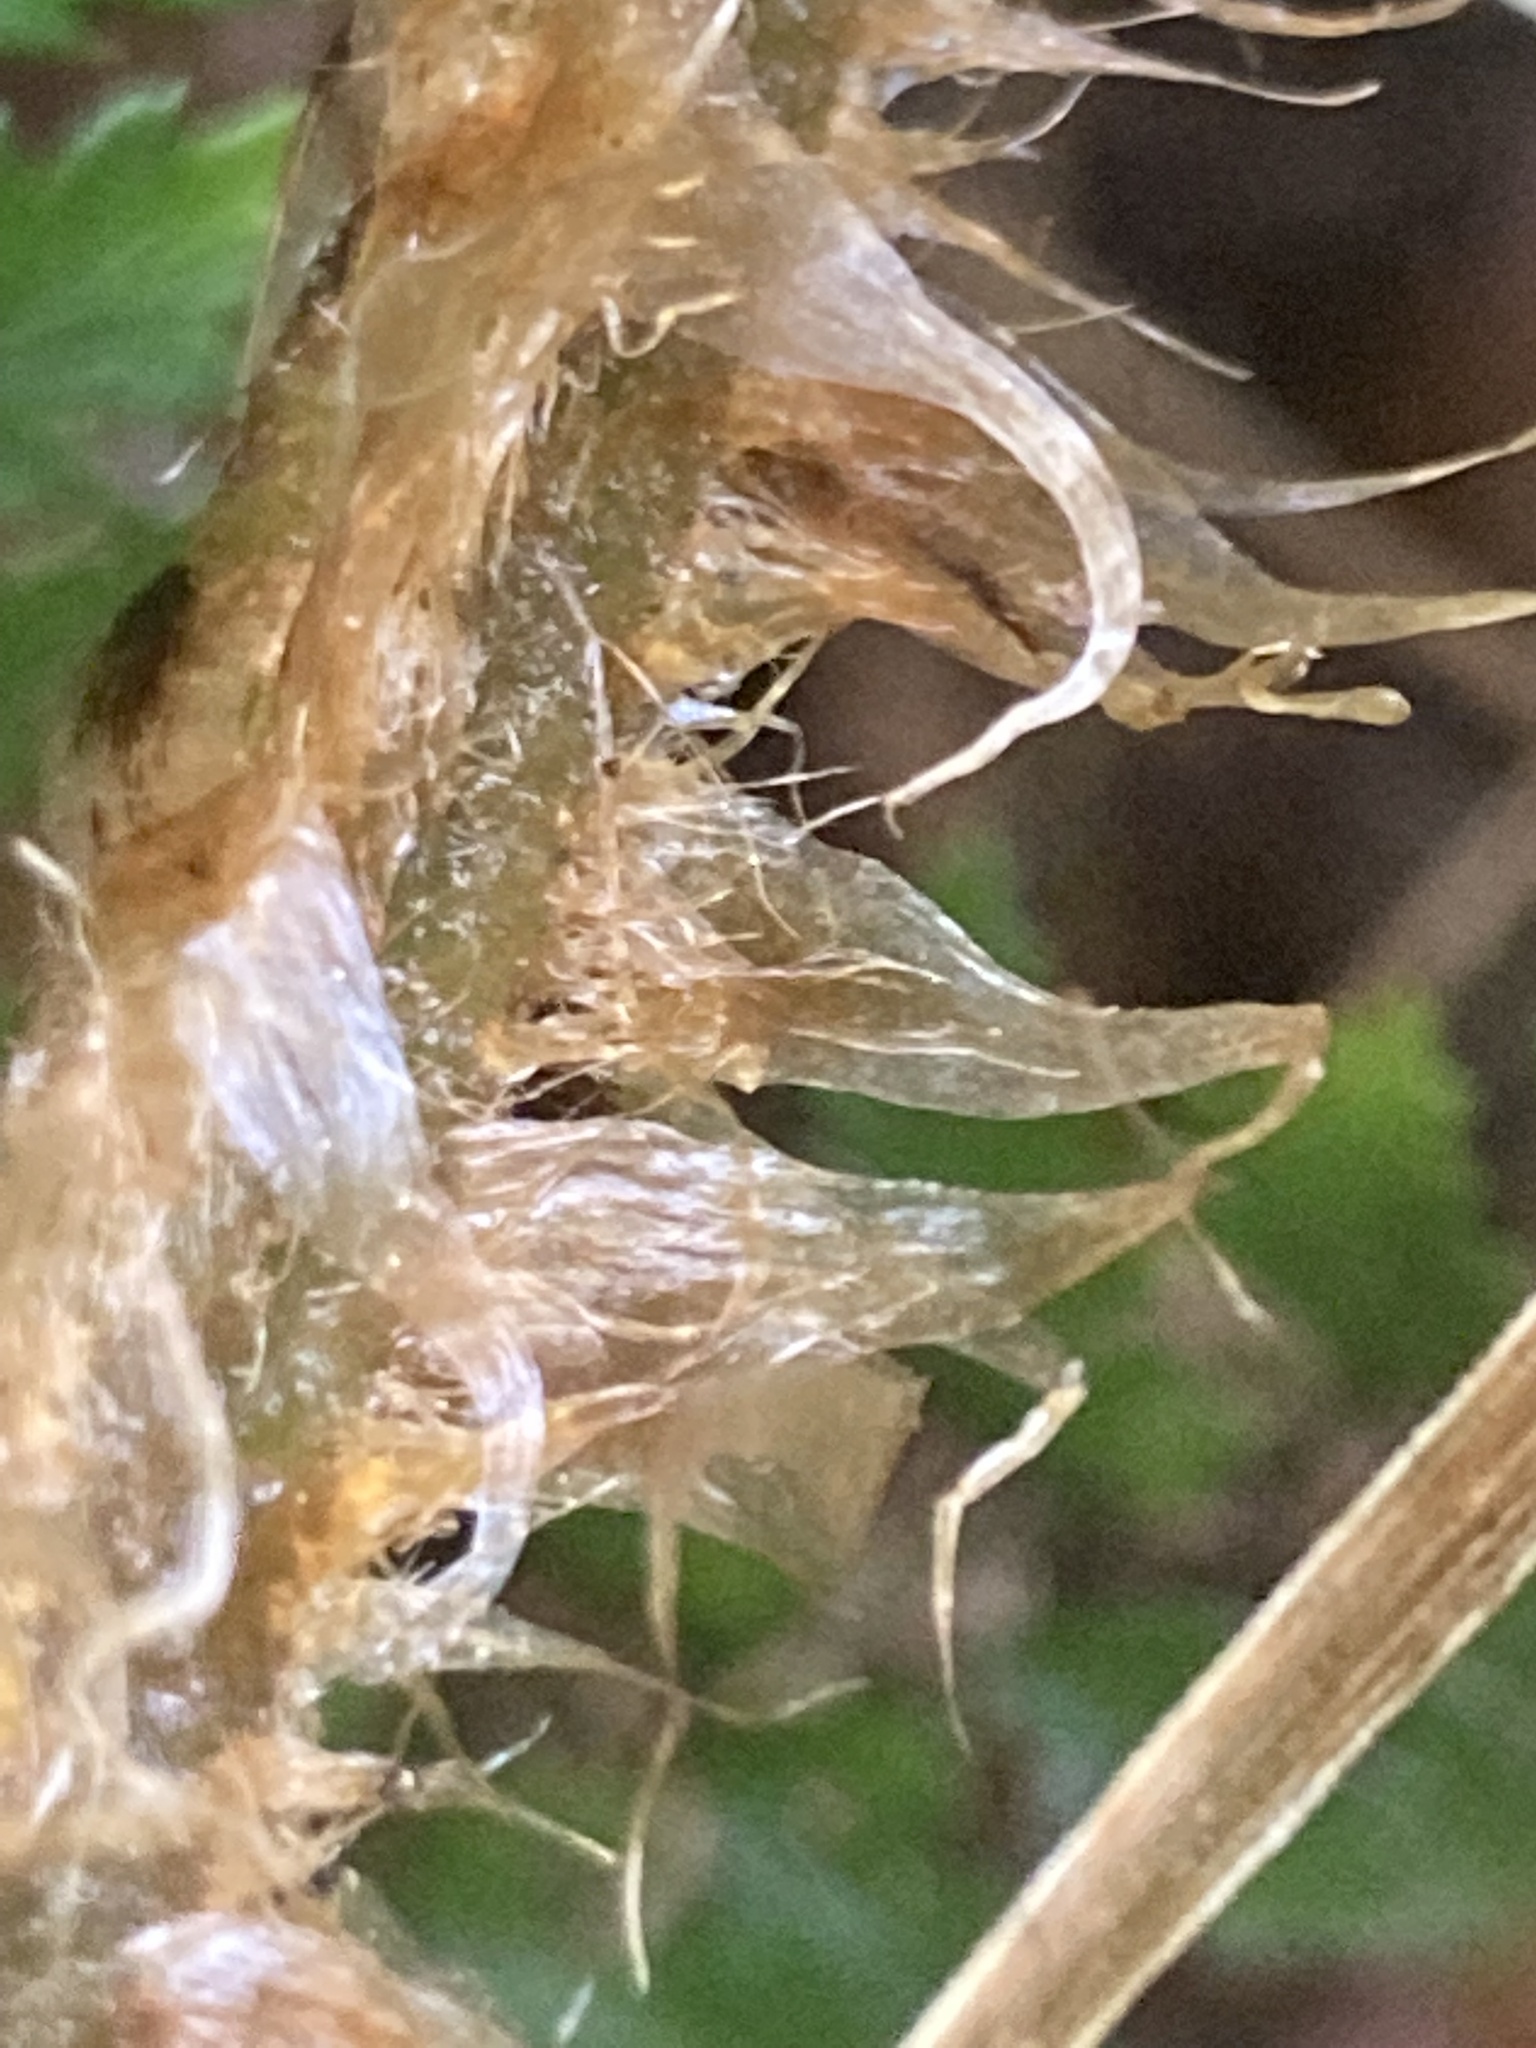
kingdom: Plantae
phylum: Tracheophyta
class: Polypodiopsida
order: Polypodiales
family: Dryopteridaceae
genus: Polystichum
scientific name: Polystichum vestitum
